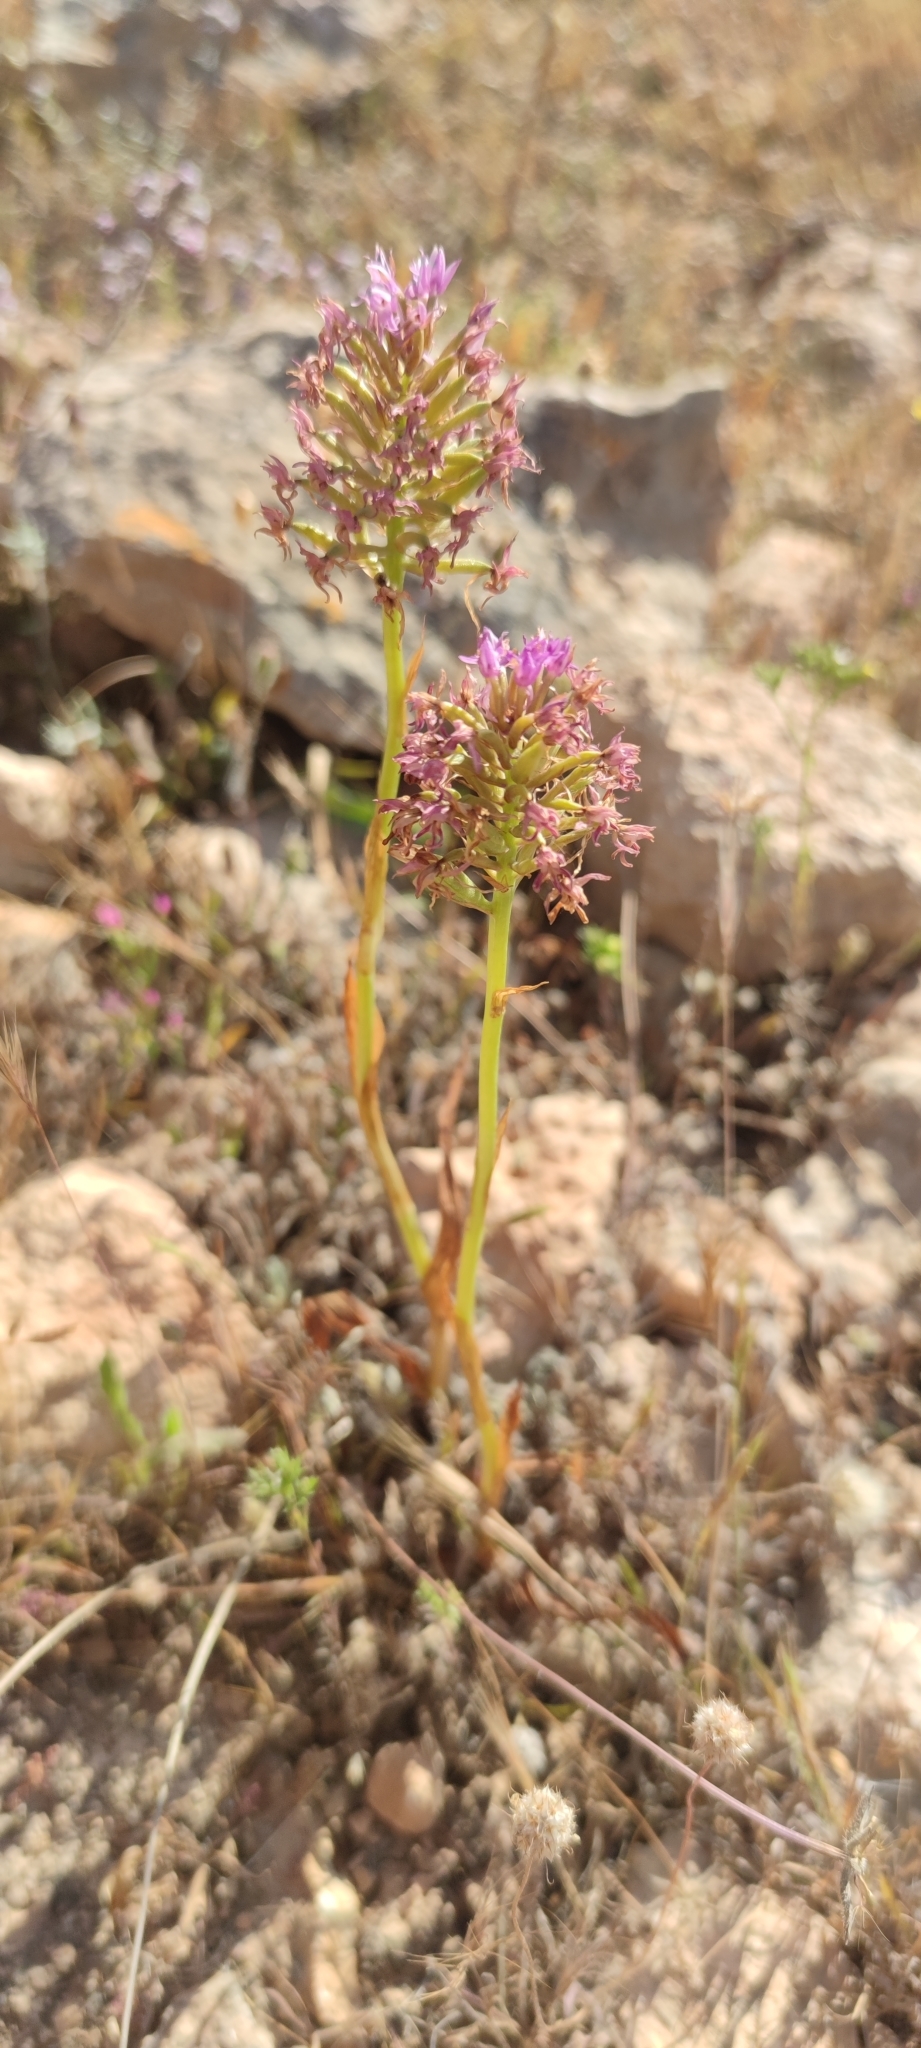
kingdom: Plantae
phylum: Tracheophyta
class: Liliopsida
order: Asparagales
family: Orchidaceae
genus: Anacamptis
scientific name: Anacamptis pyramidalis
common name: Pyramidal orchid
